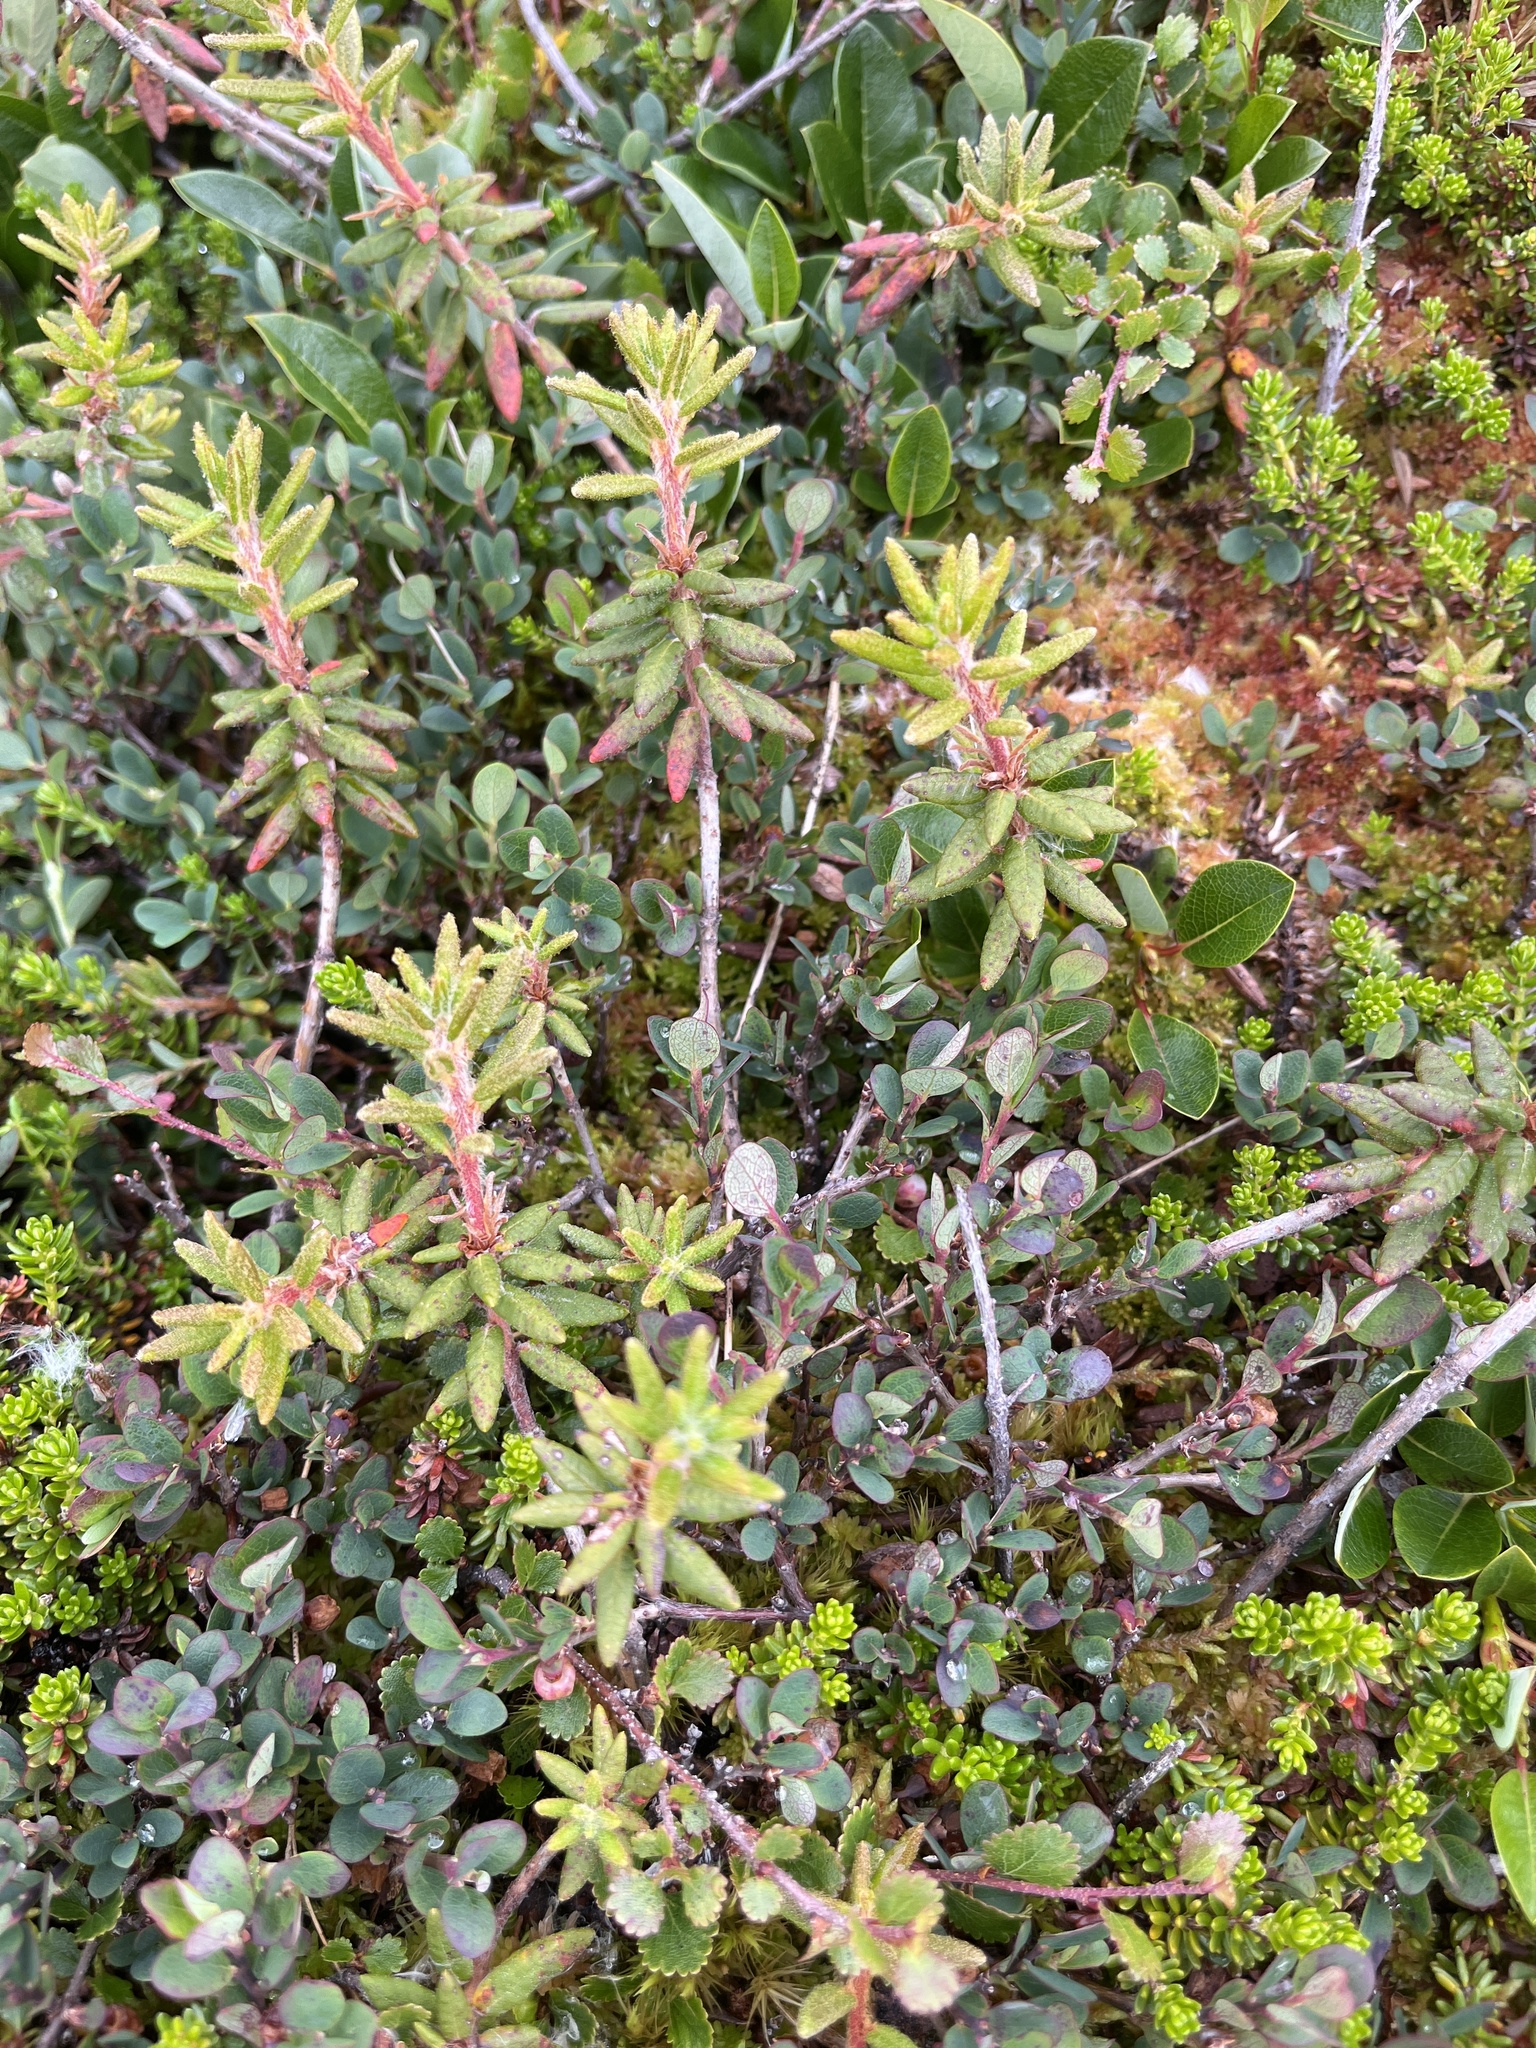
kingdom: Plantae
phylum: Tracheophyta
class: Magnoliopsida
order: Ericales
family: Ericaceae
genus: Rhododendron
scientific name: Rhododendron groenlandicum
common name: Bog labrador tea
